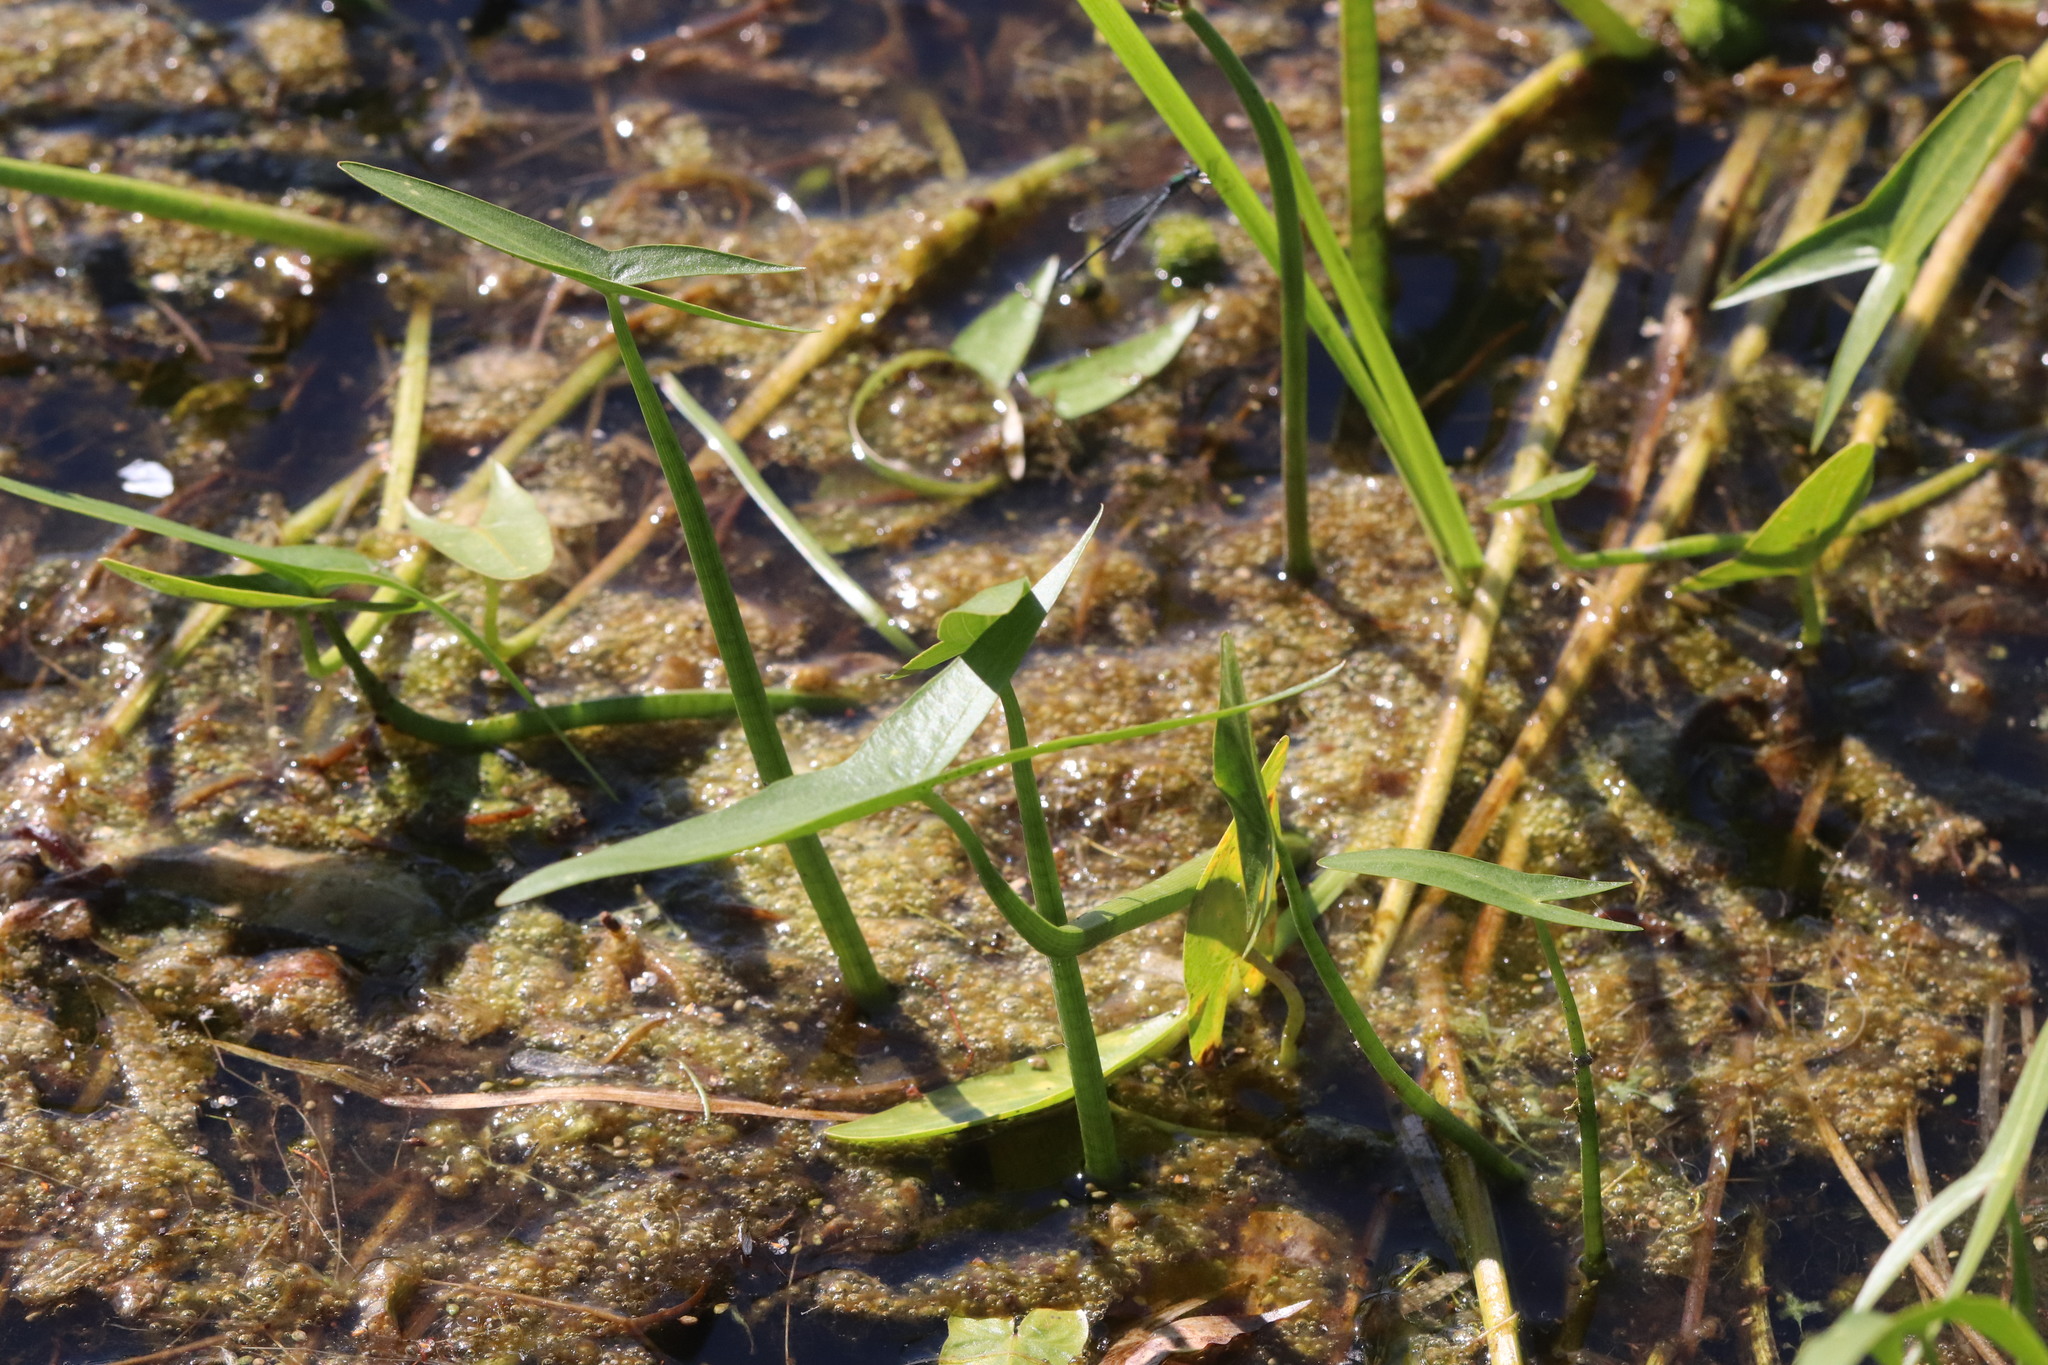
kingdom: Plantae
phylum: Tracheophyta
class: Liliopsida
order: Alismatales
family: Alismataceae
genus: Sagittaria
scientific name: Sagittaria sagittifolia
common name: Arrowhead
